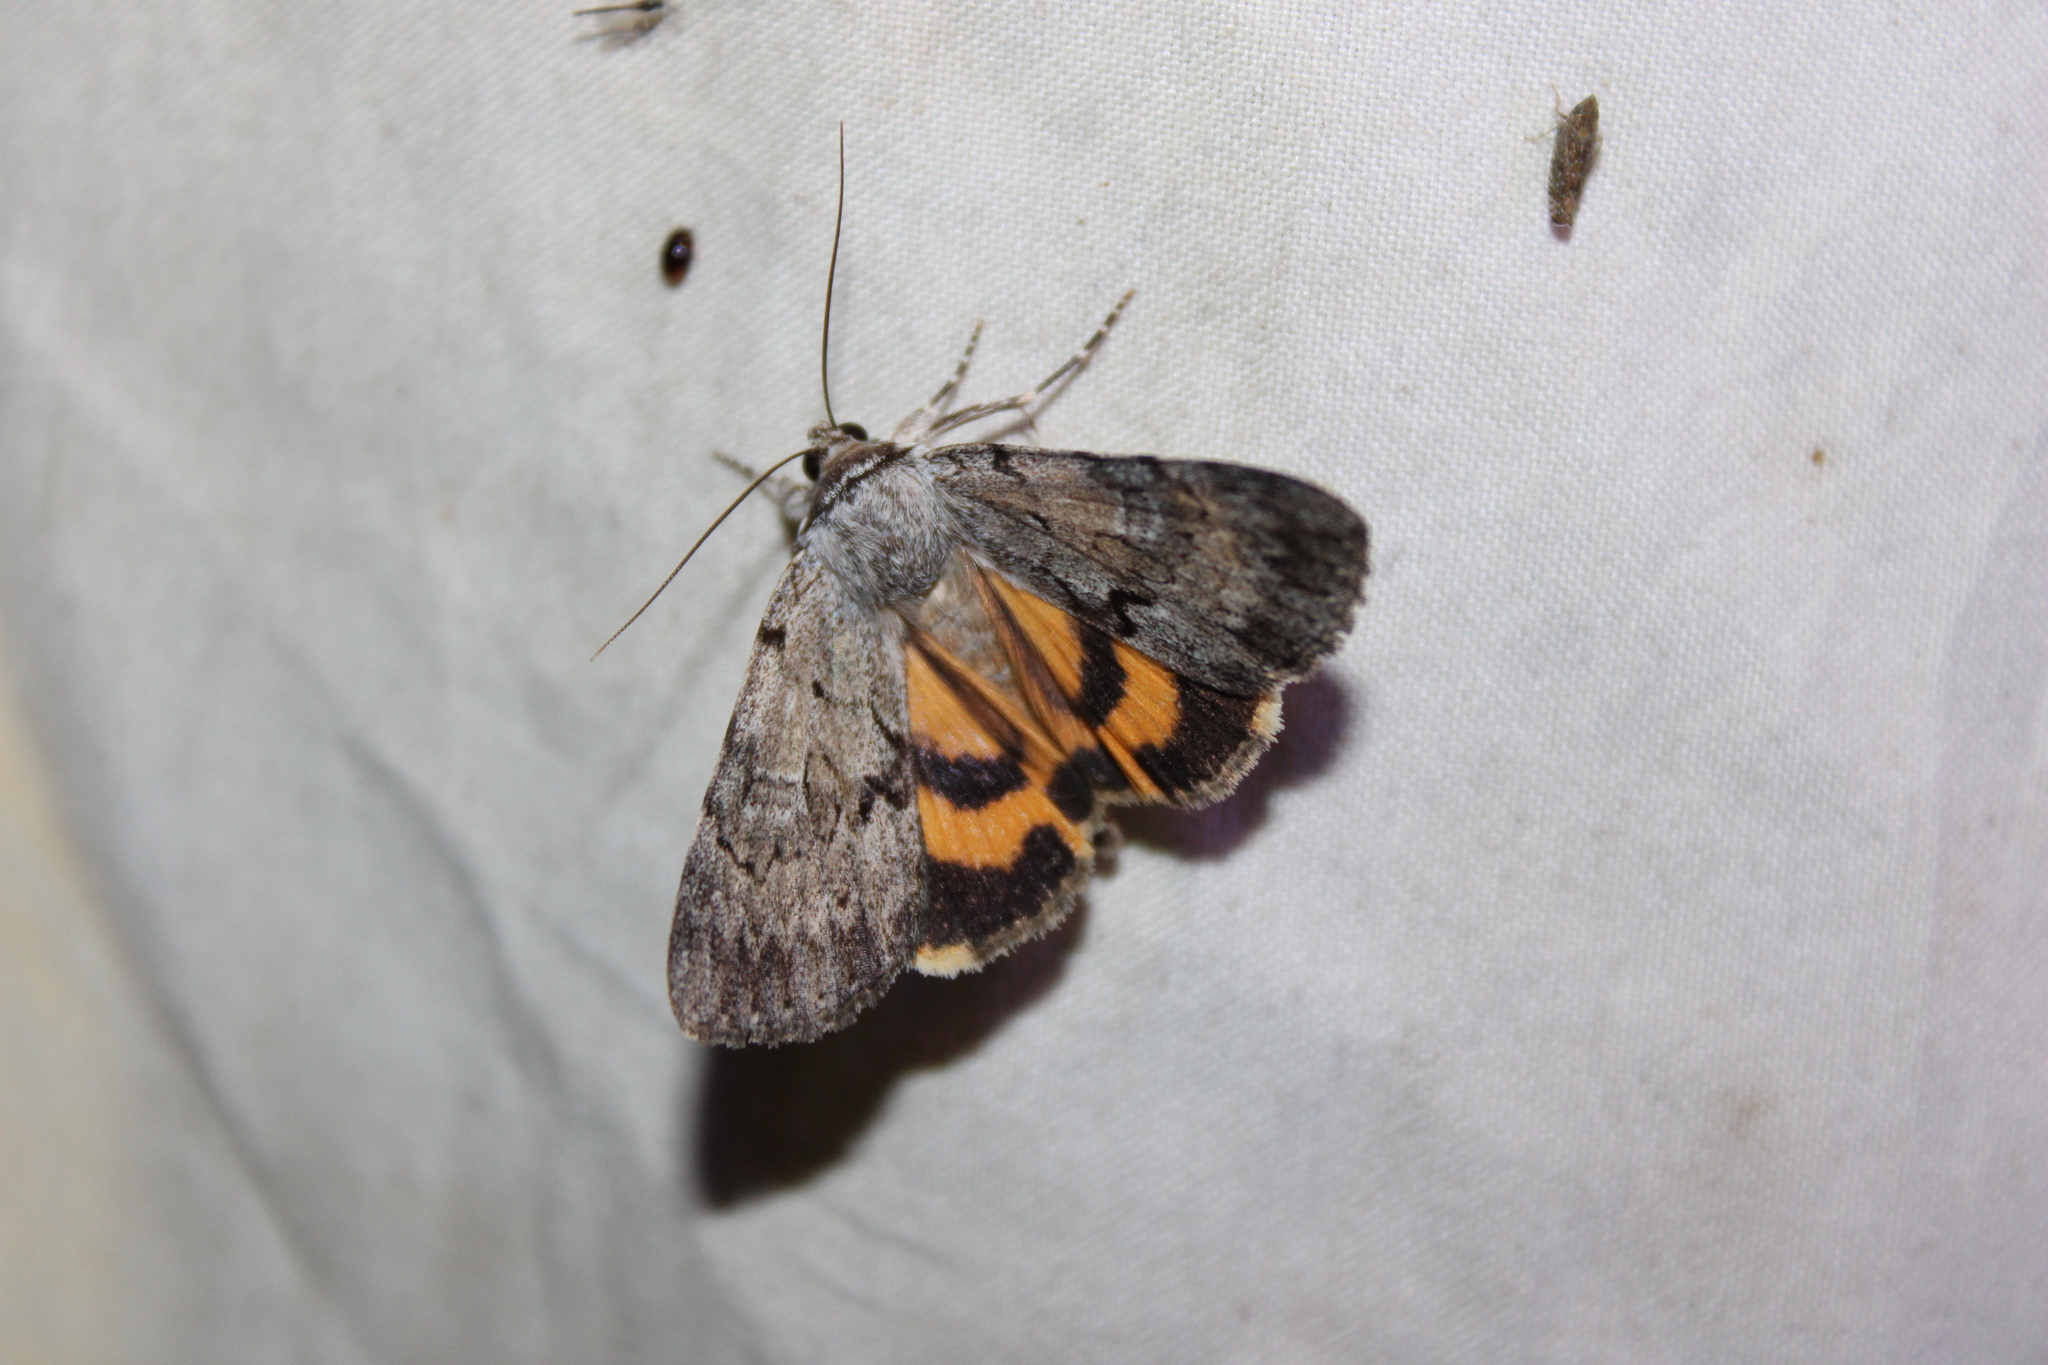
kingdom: Animalia
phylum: Arthropoda
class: Insecta
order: Lepidoptera
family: Erebidae
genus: Catocala
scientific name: Catocala sordida
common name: Sordid underwing
